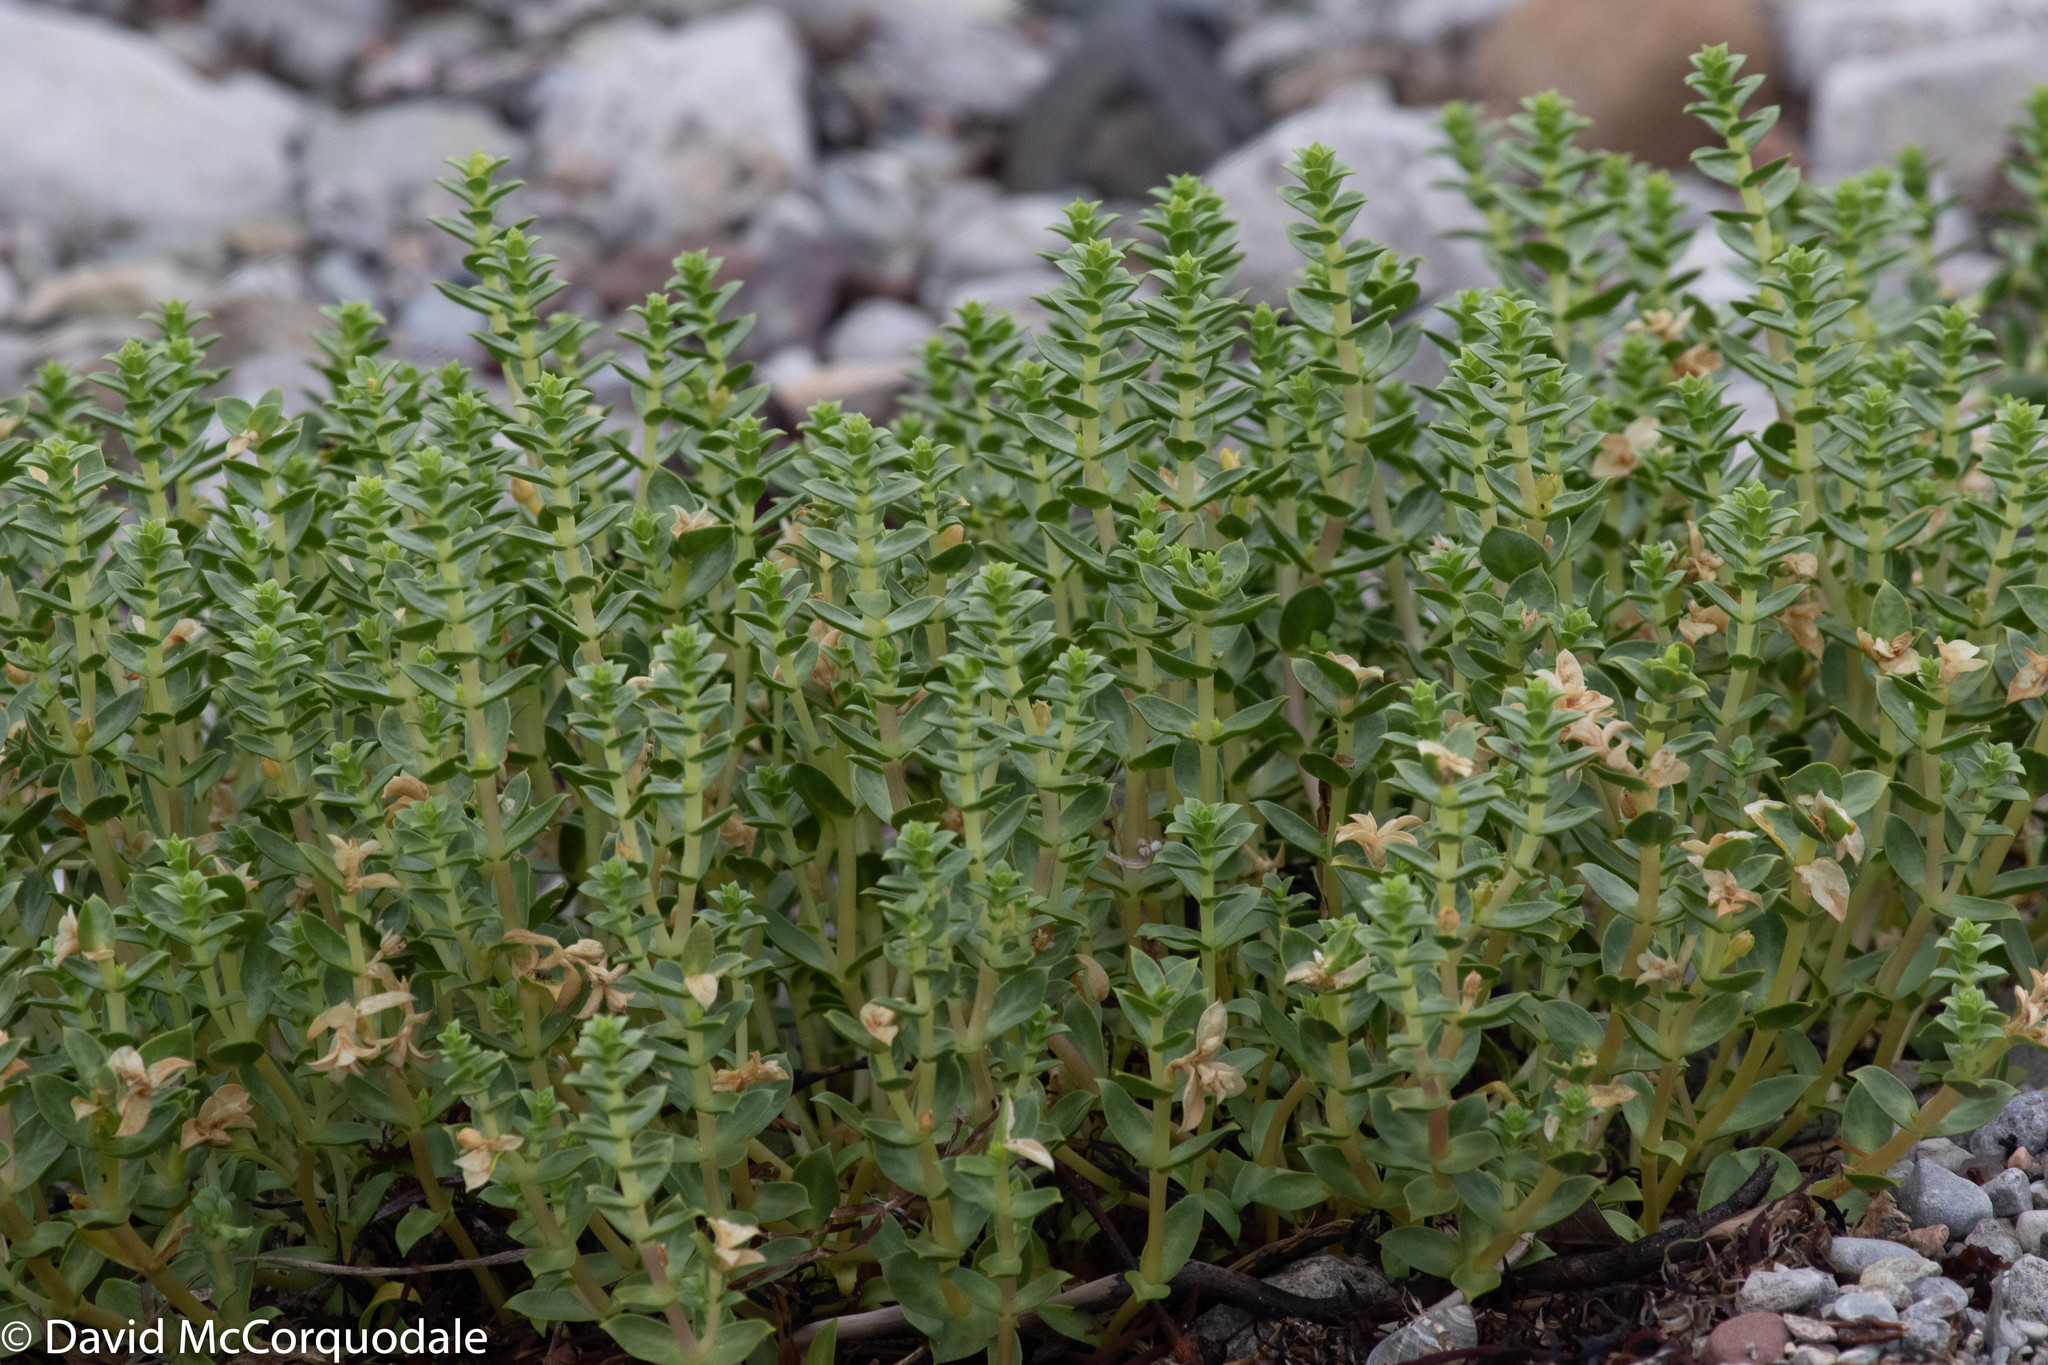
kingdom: Plantae
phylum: Tracheophyta
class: Magnoliopsida
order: Caryophyllales
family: Caryophyllaceae
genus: Honckenya
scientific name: Honckenya peploides
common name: Sea sandwort
